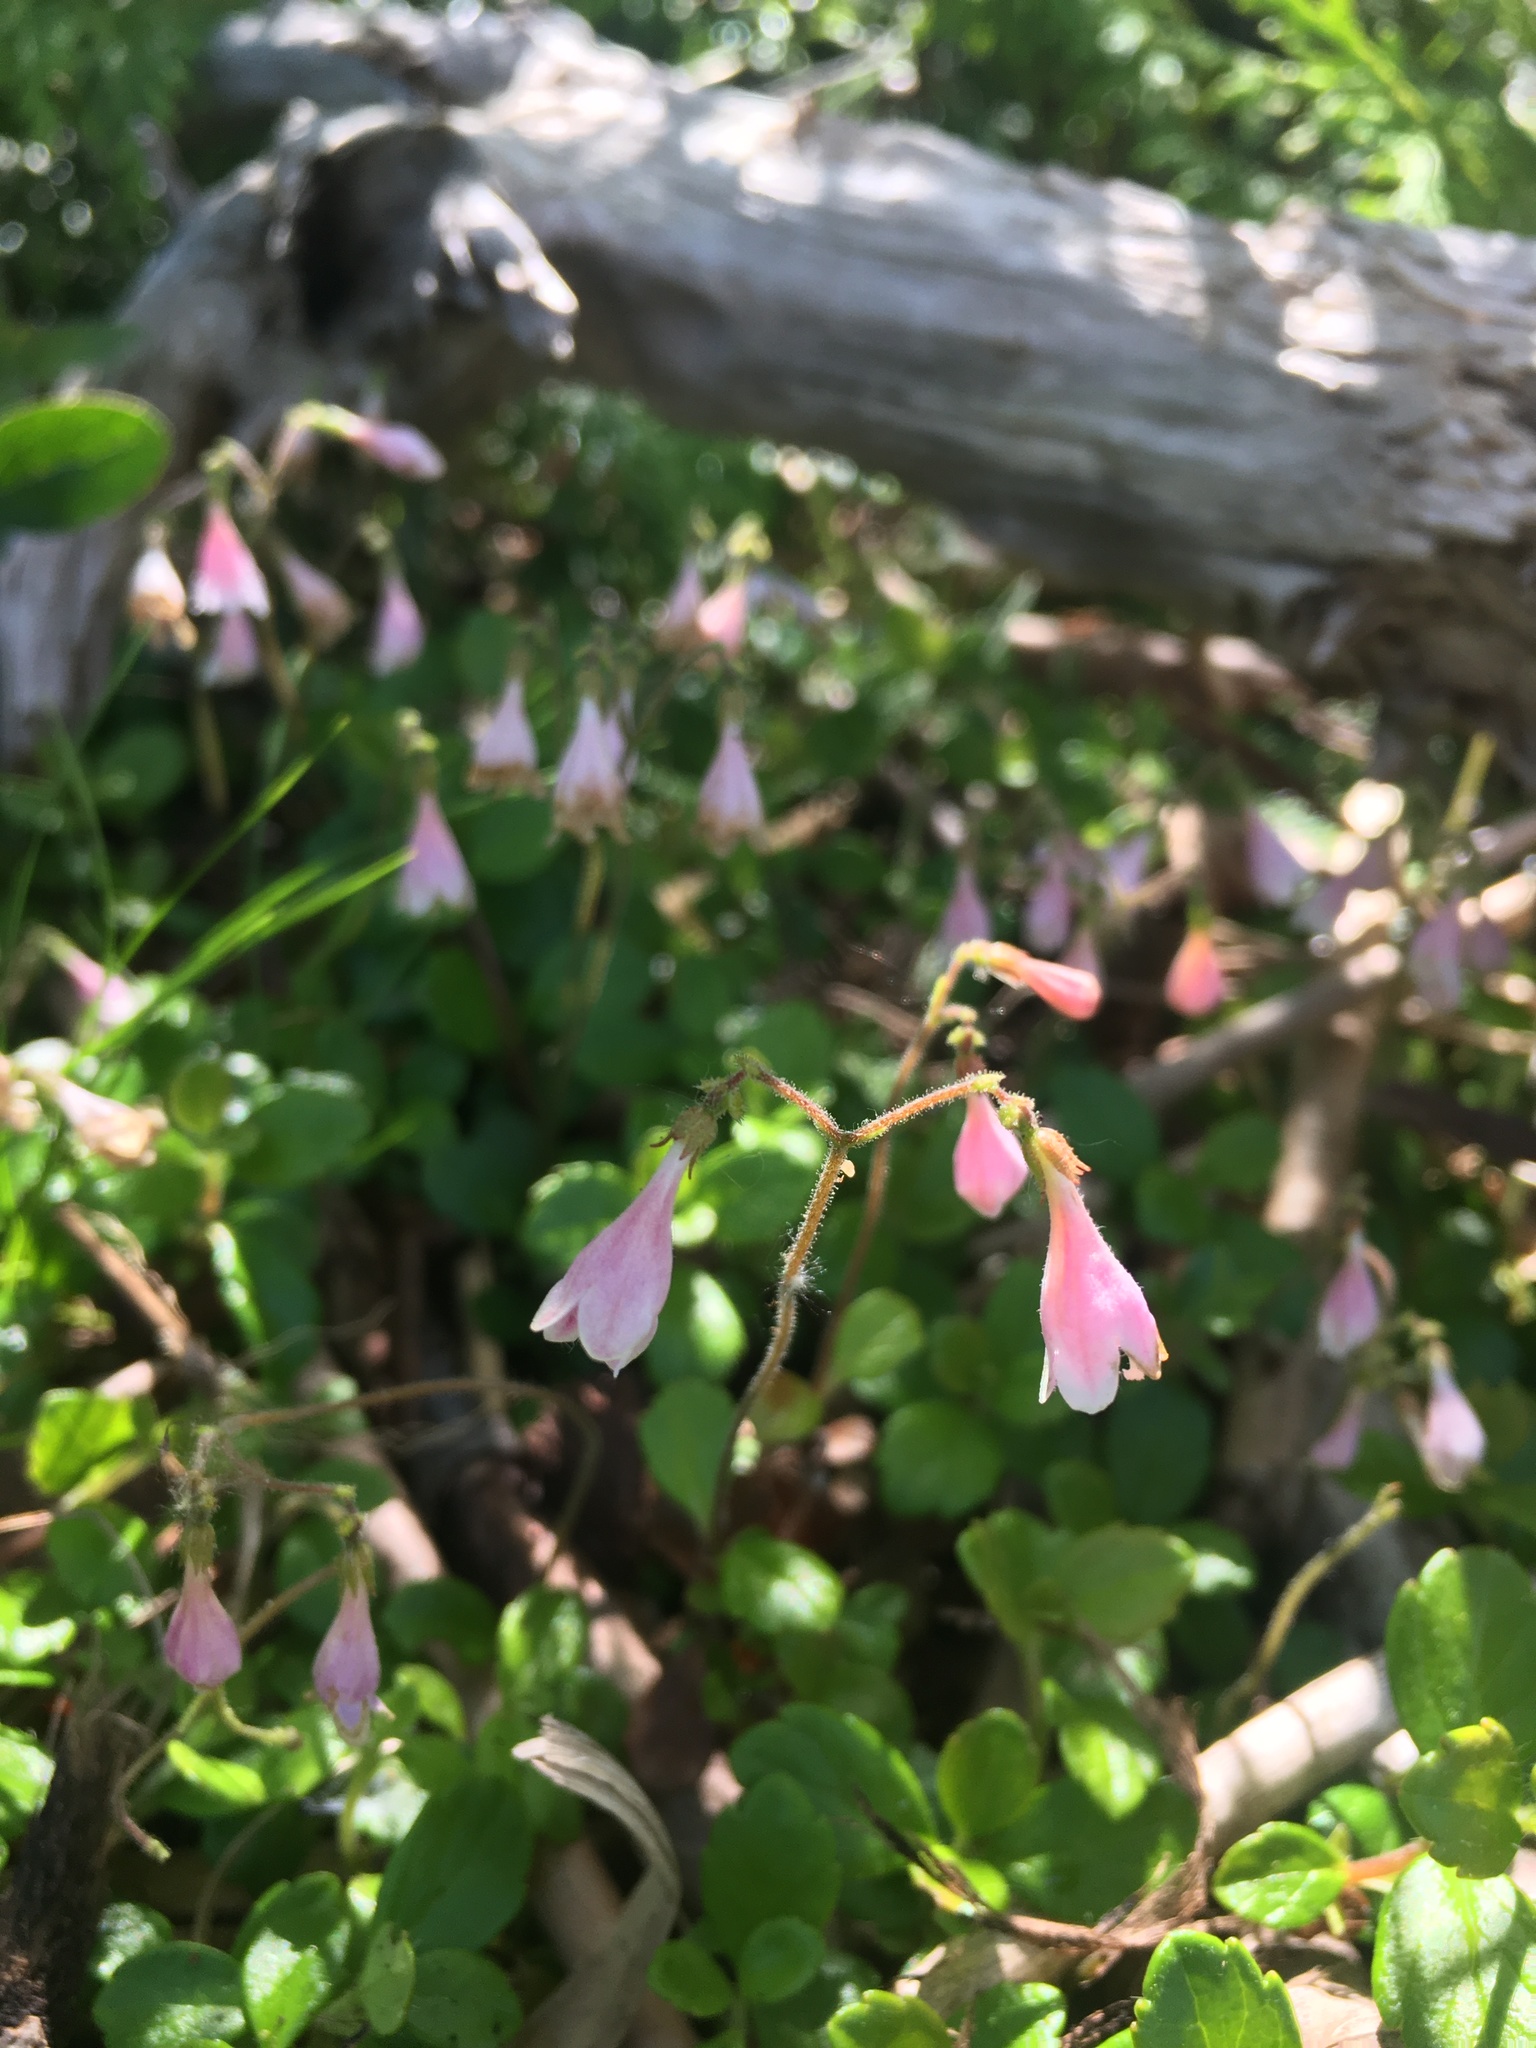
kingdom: Plantae
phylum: Tracheophyta
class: Magnoliopsida
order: Dipsacales
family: Caprifoliaceae
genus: Linnaea
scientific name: Linnaea borealis
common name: Twinflower
